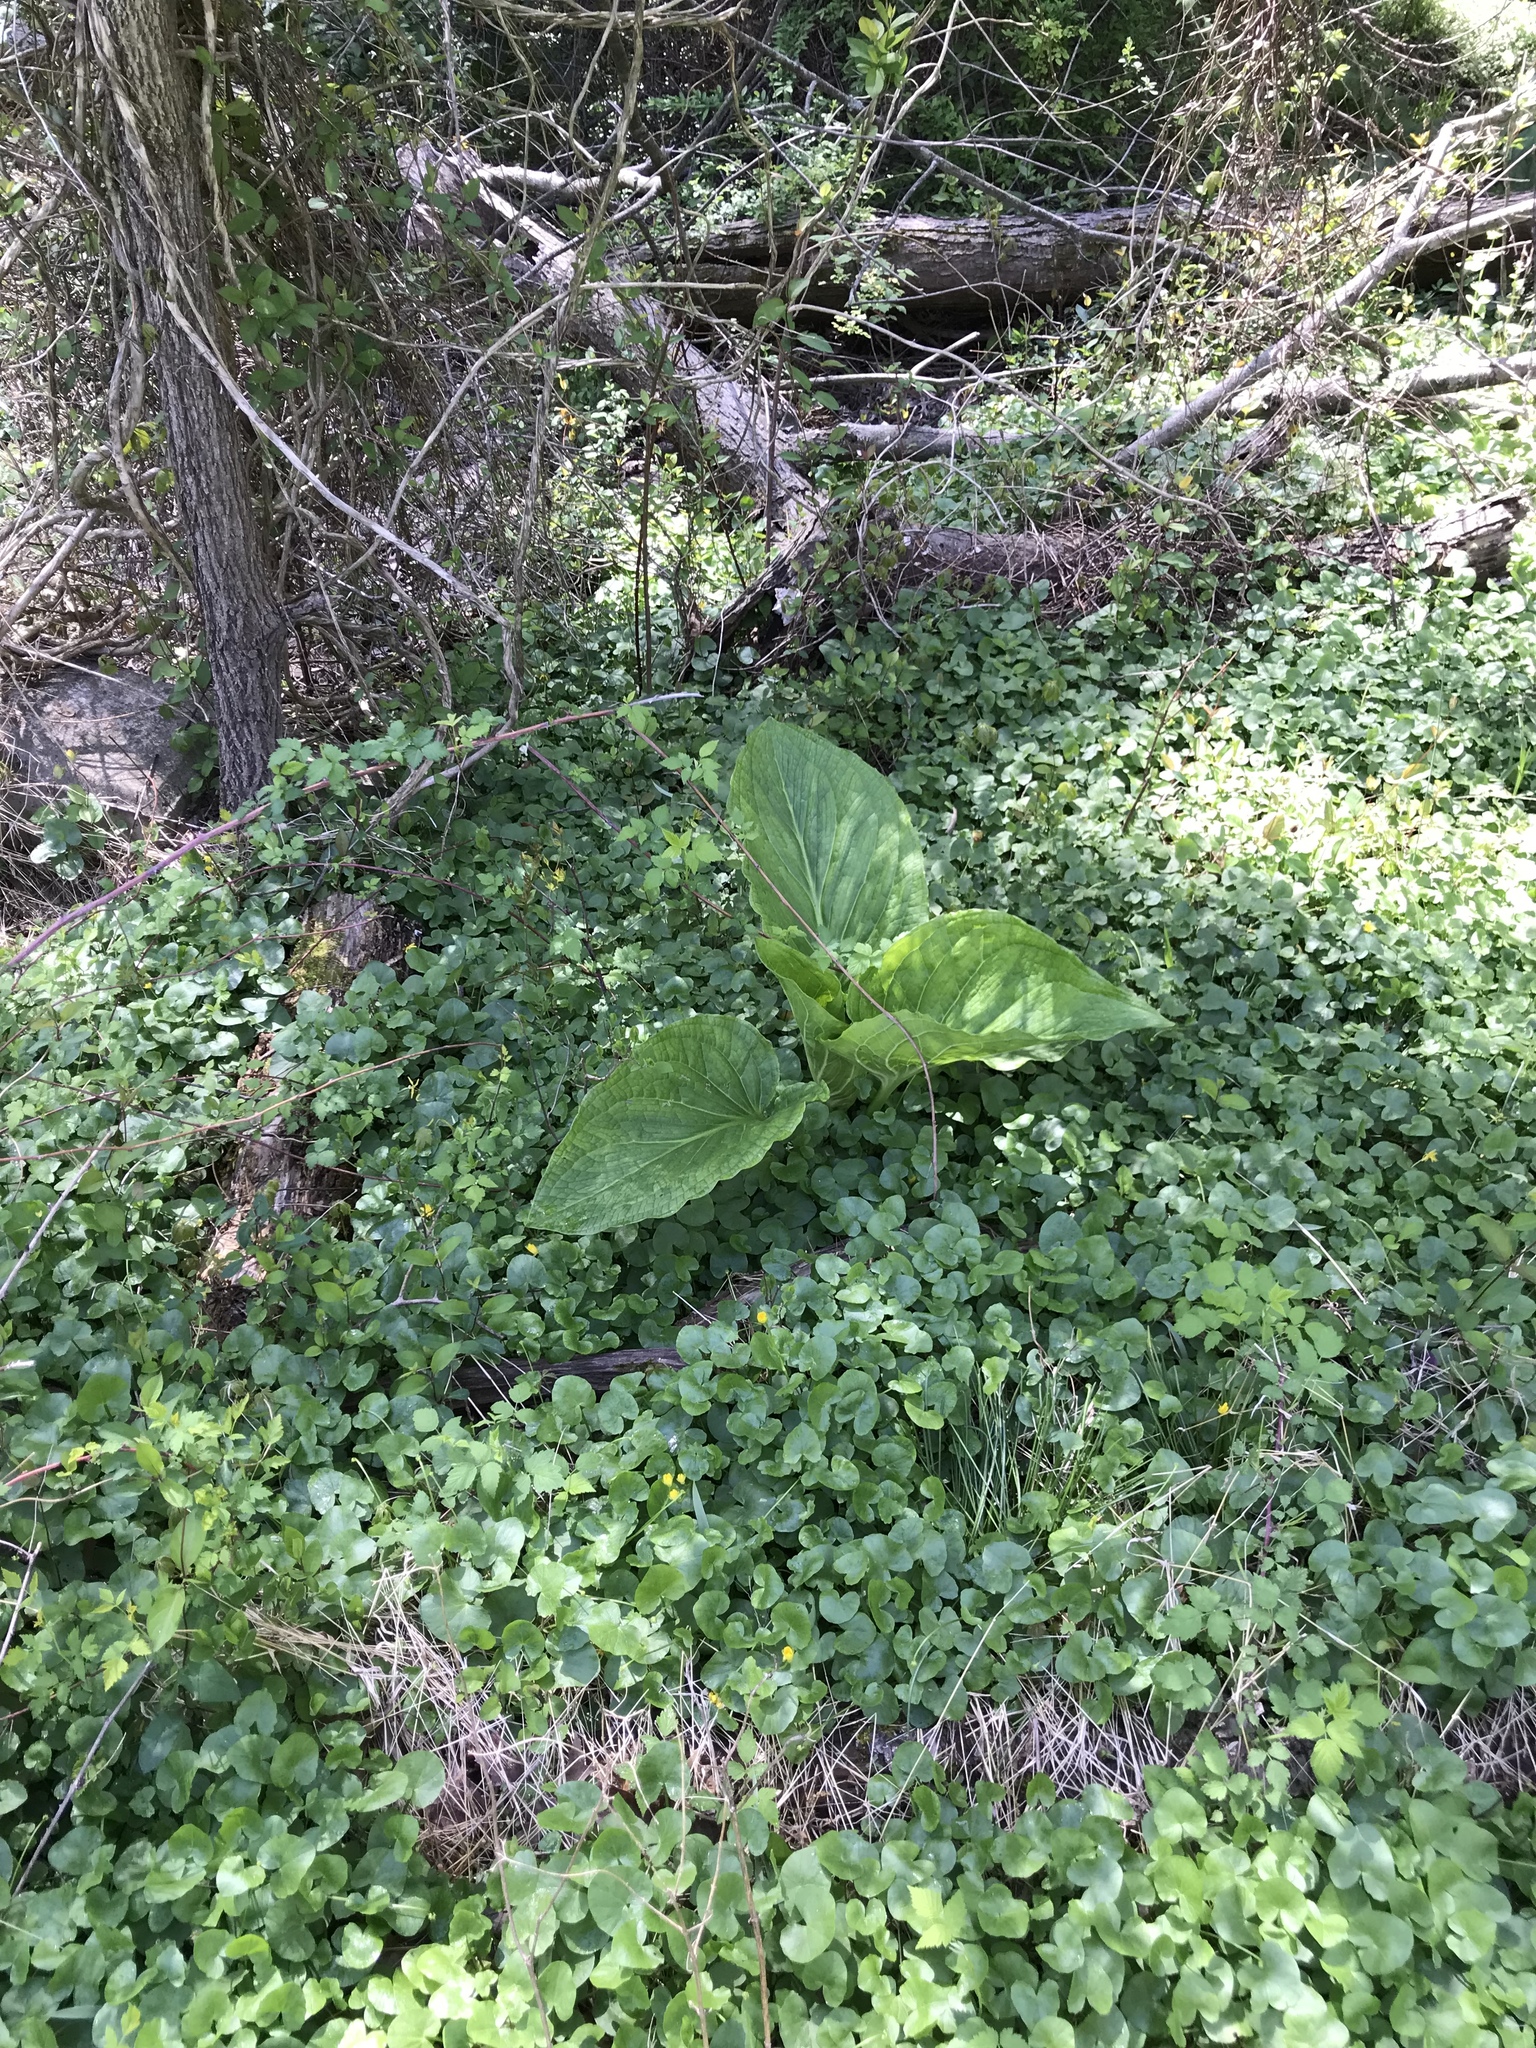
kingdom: Plantae
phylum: Tracheophyta
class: Liliopsida
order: Alismatales
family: Araceae
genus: Symplocarpus
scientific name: Symplocarpus foetidus
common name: Eastern skunk cabbage
